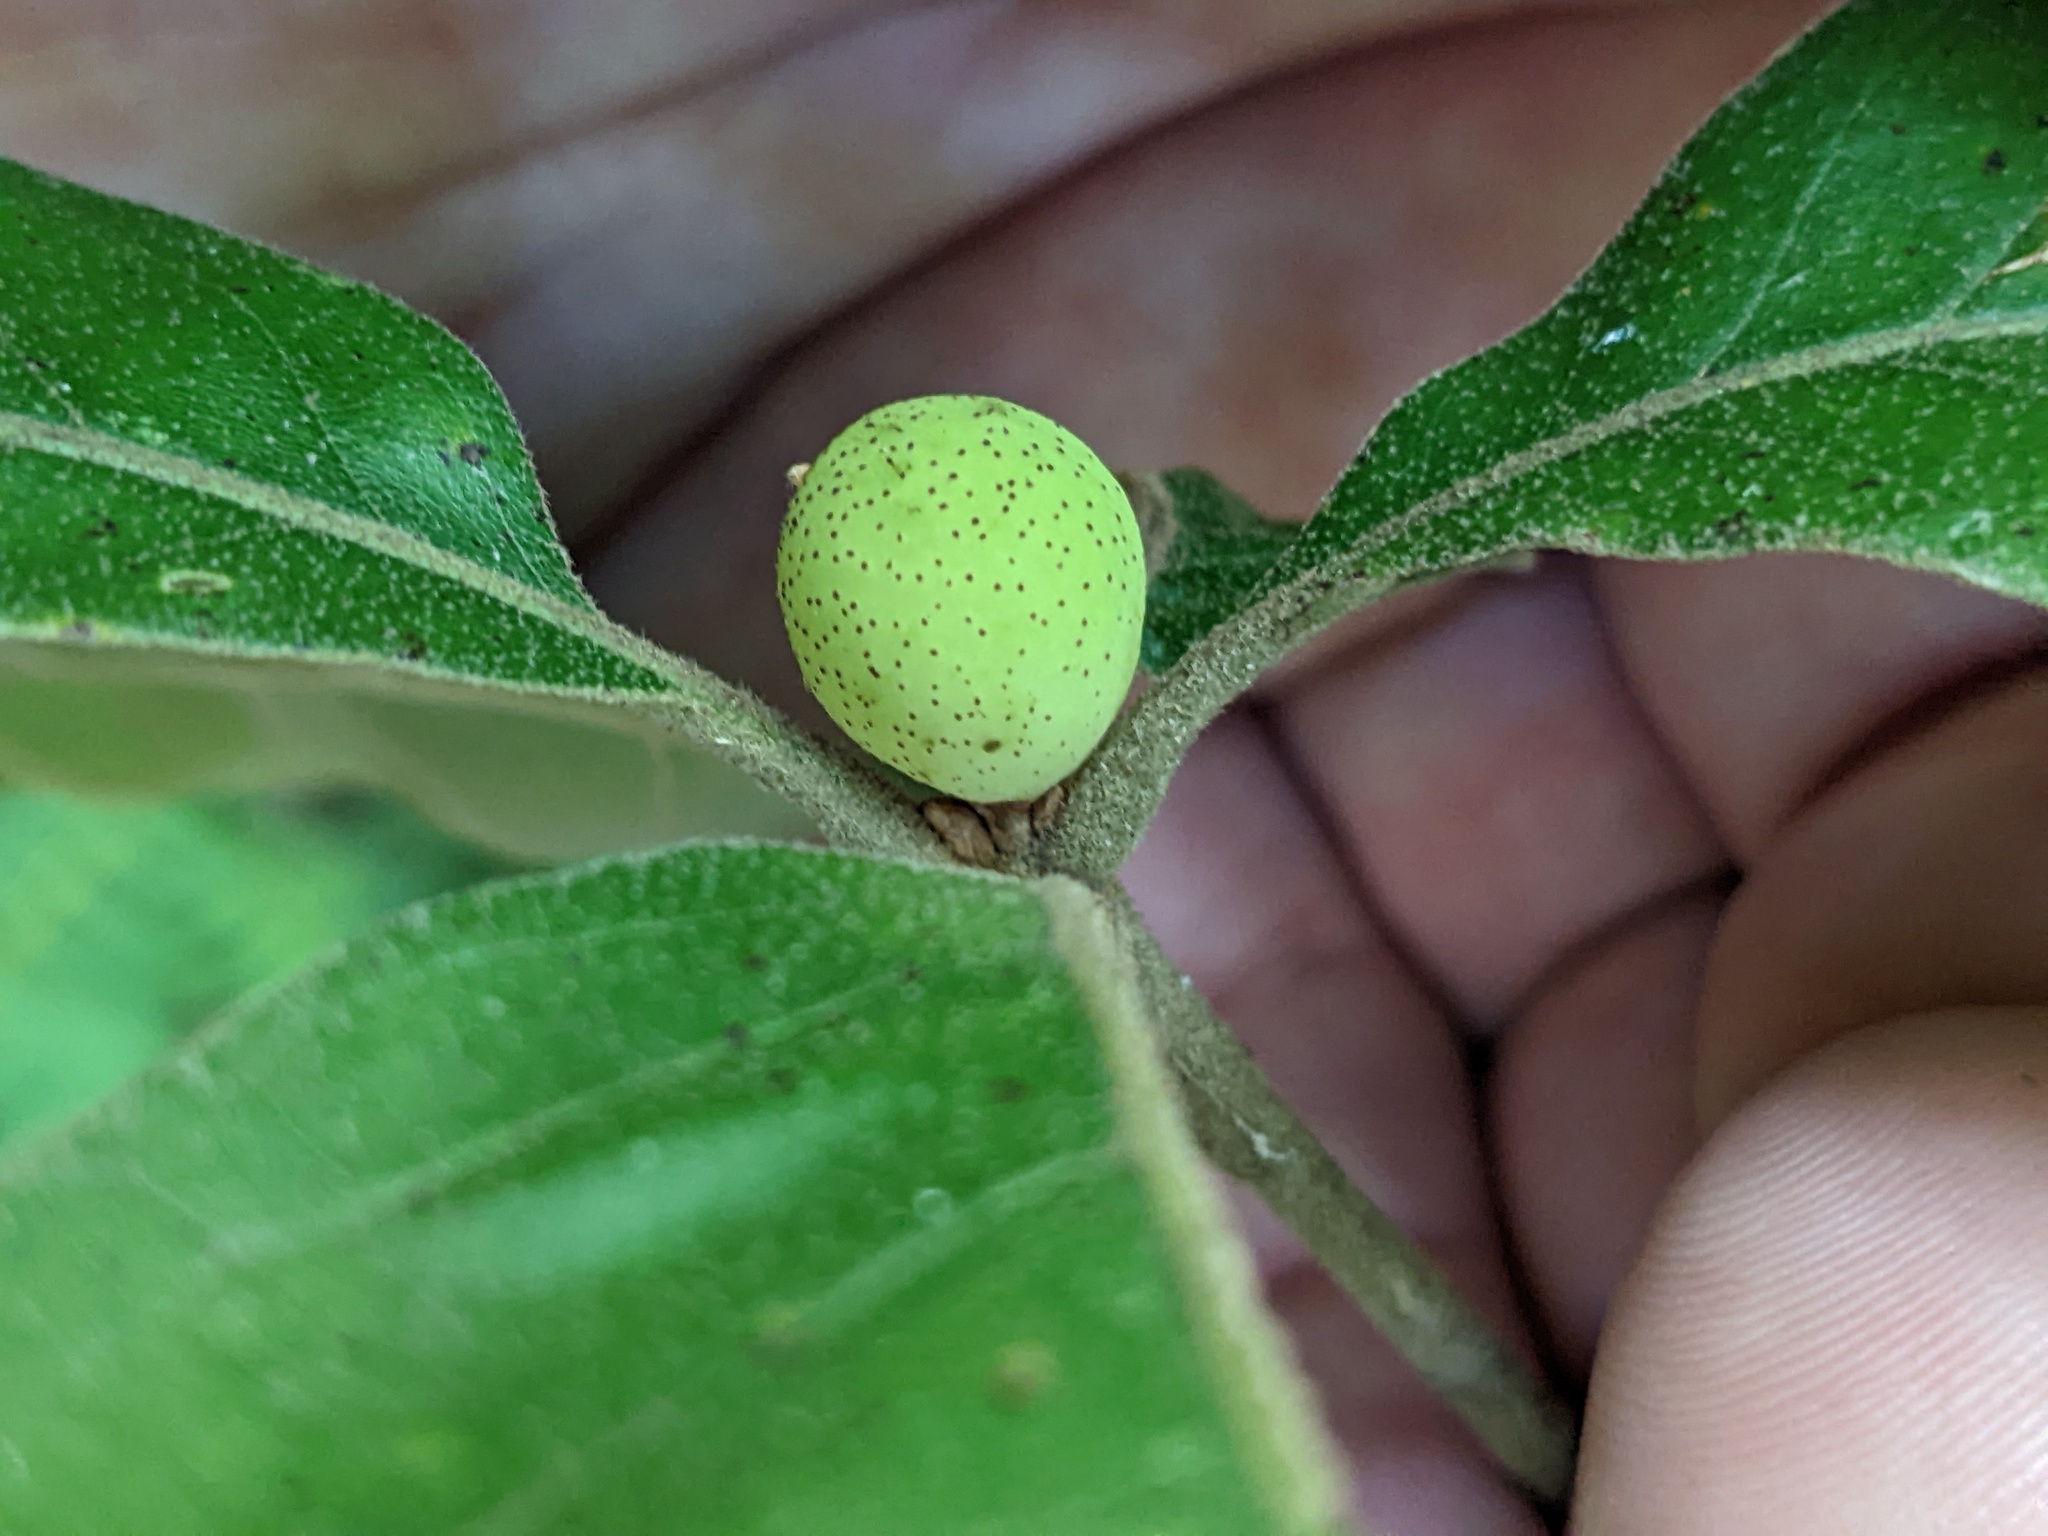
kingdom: Animalia
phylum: Arthropoda
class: Insecta
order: Hymenoptera
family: Cynipidae
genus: Amphibolips
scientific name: Amphibolips
